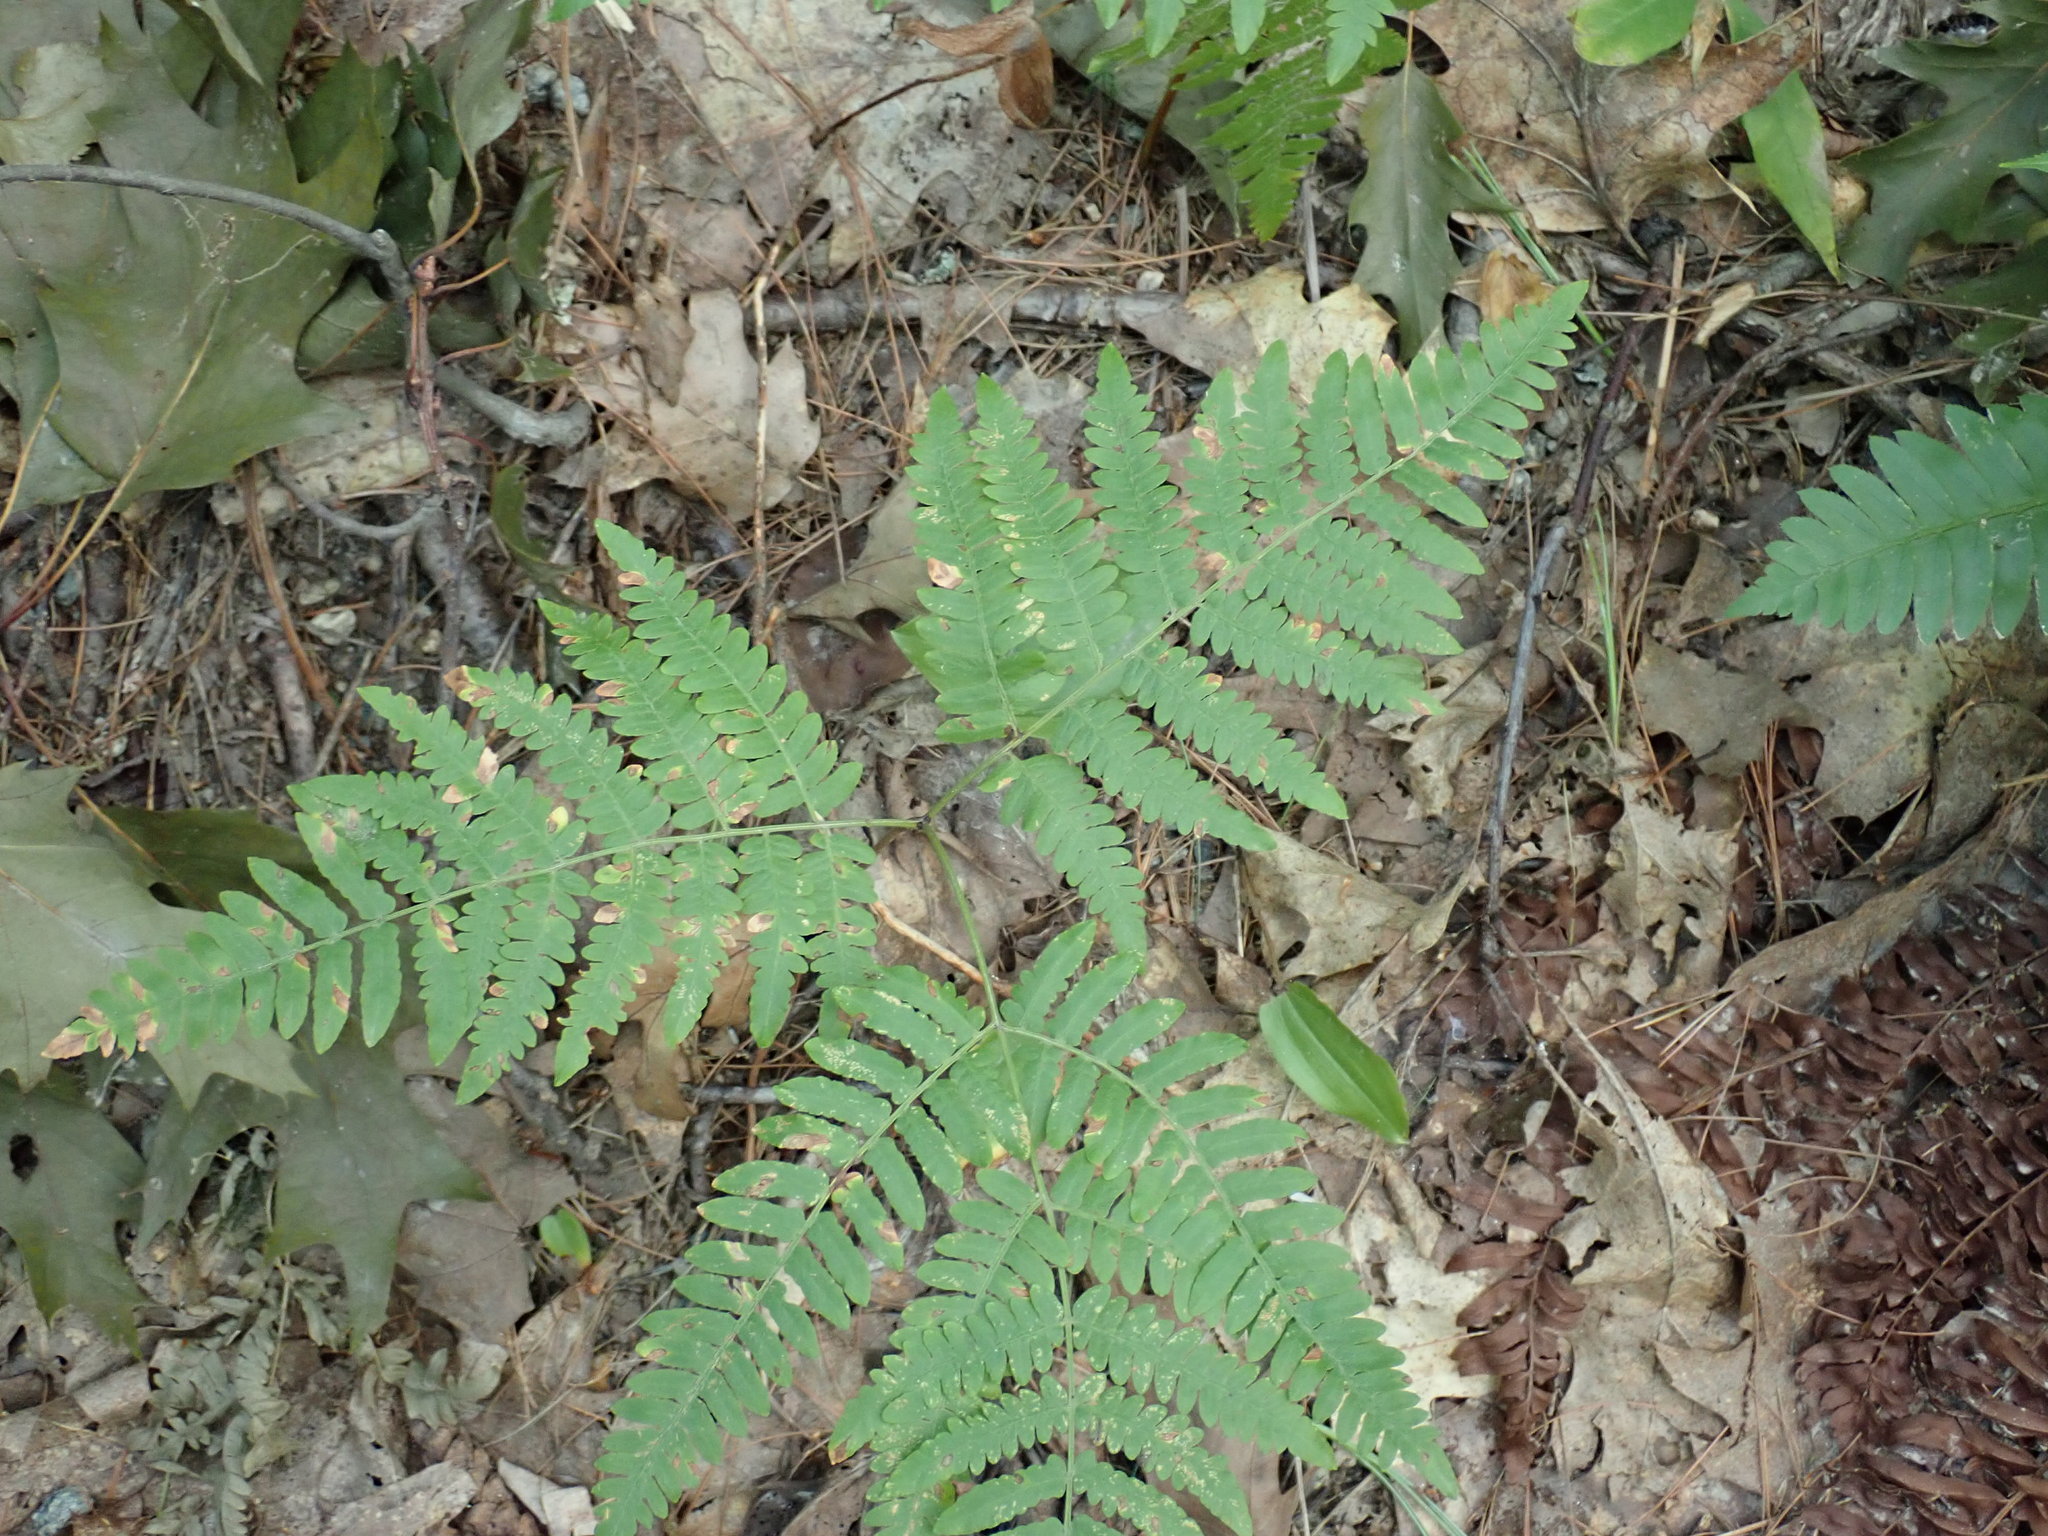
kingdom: Plantae
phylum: Tracheophyta
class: Polypodiopsida
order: Polypodiales
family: Dennstaedtiaceae
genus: Pteridium
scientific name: Pteridium aquilinum
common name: Bracken
